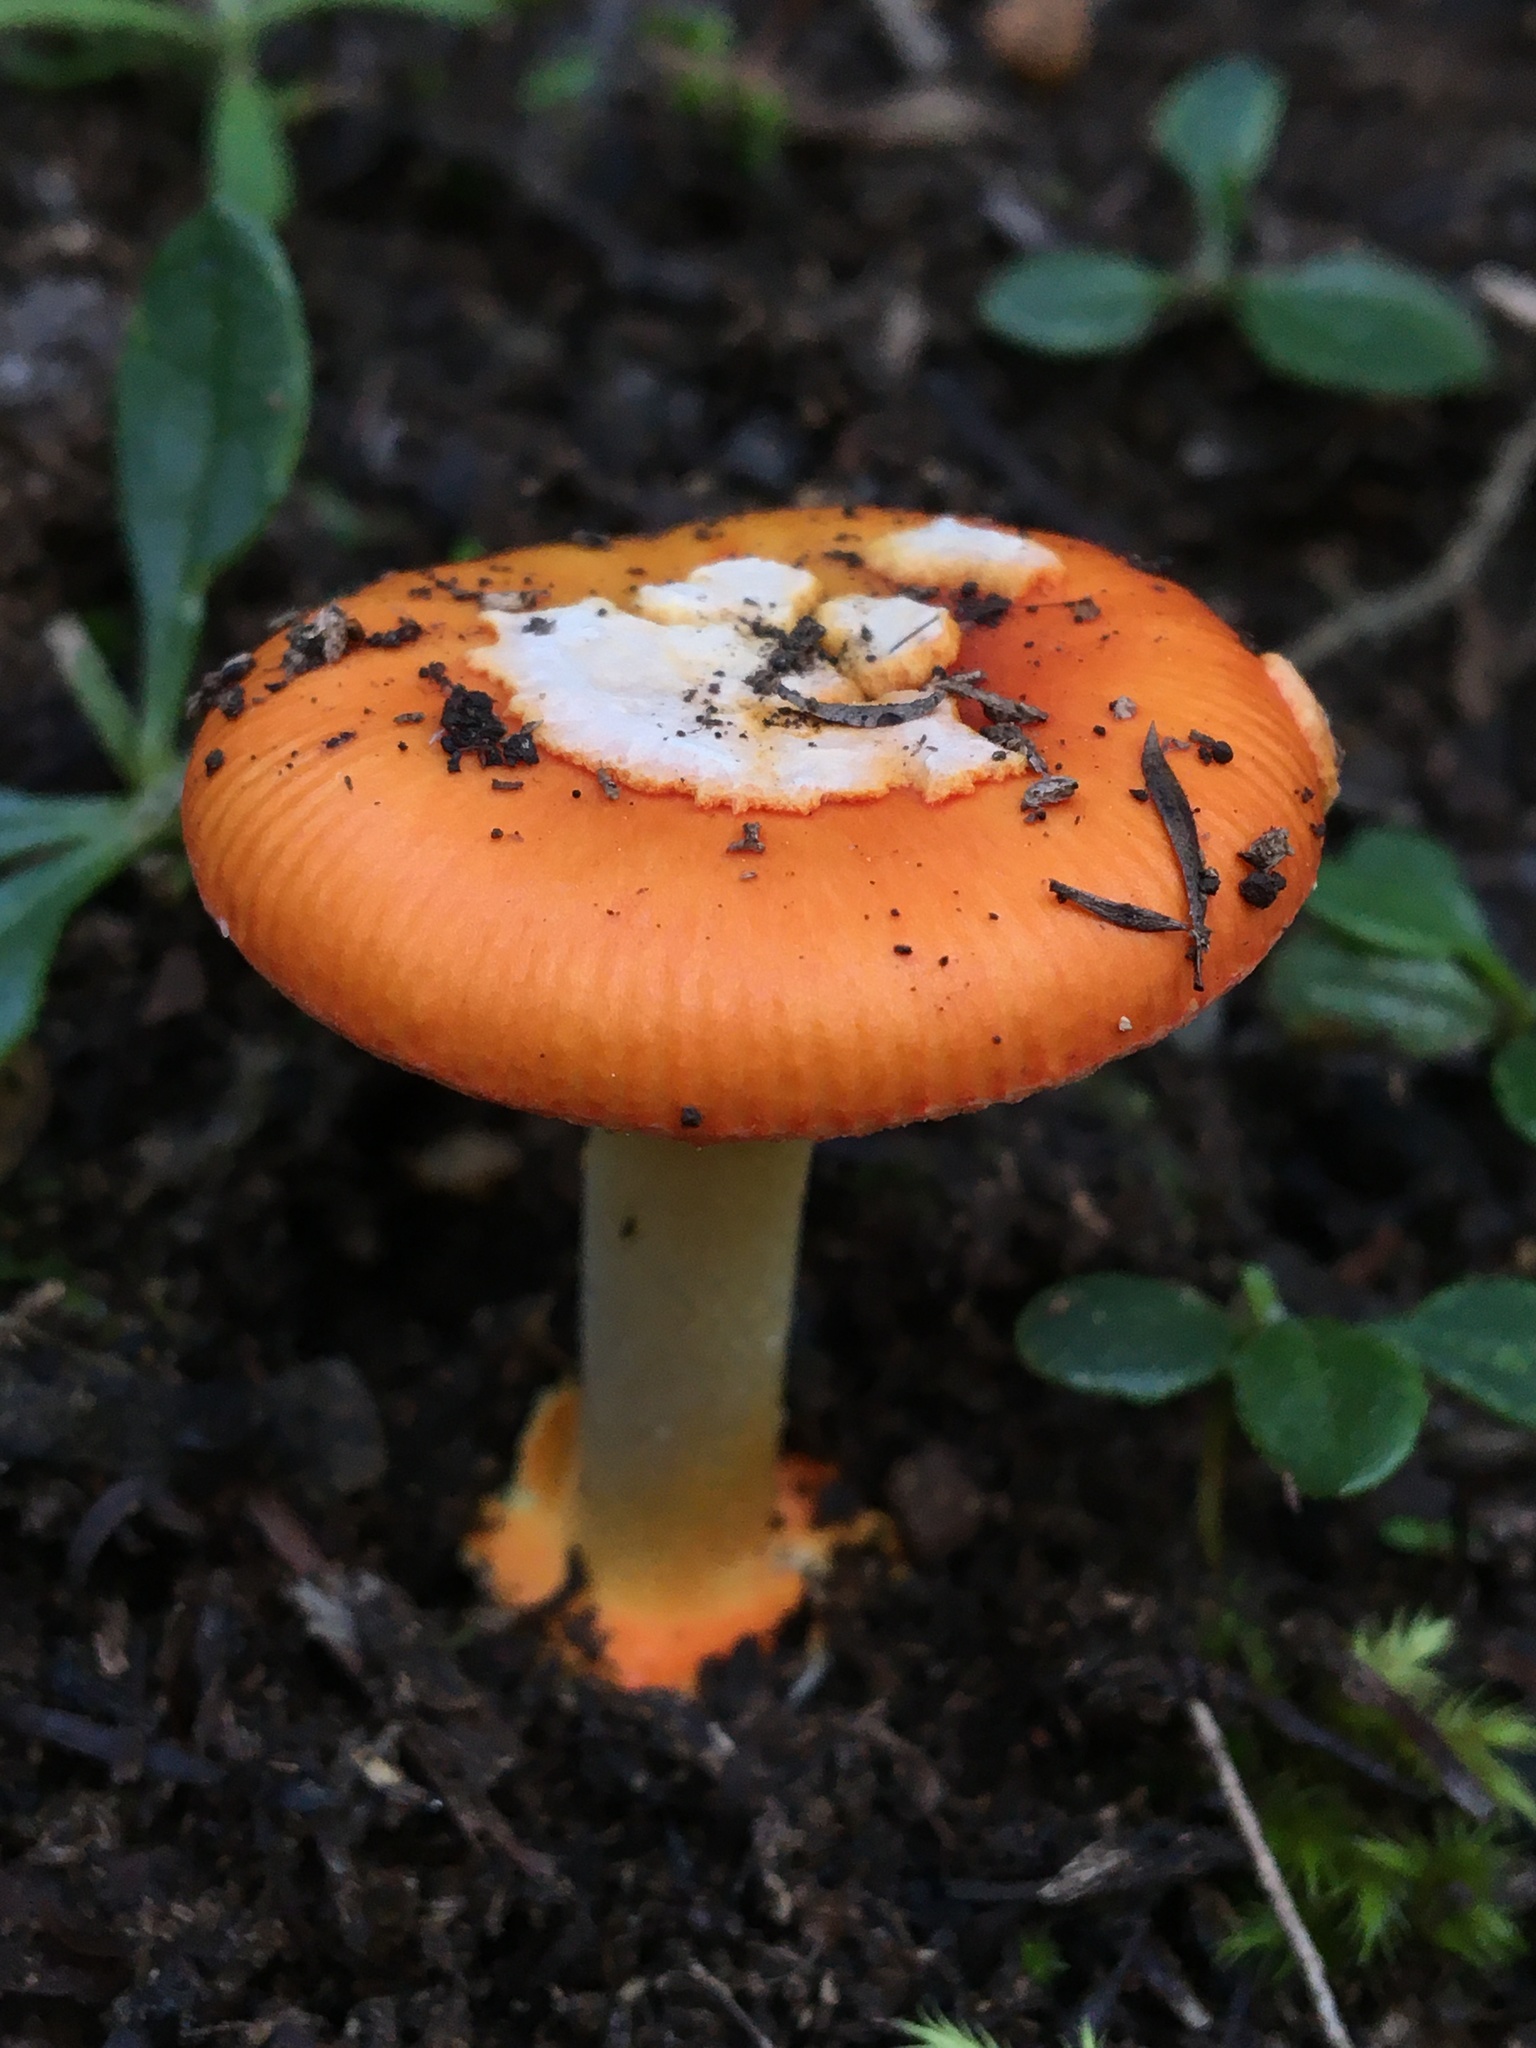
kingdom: Fungi
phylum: Basidiomycota
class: Agaricomycetes
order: Agaricales
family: Amanitaceae
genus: Amanita
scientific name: Amanita xanthocephala
